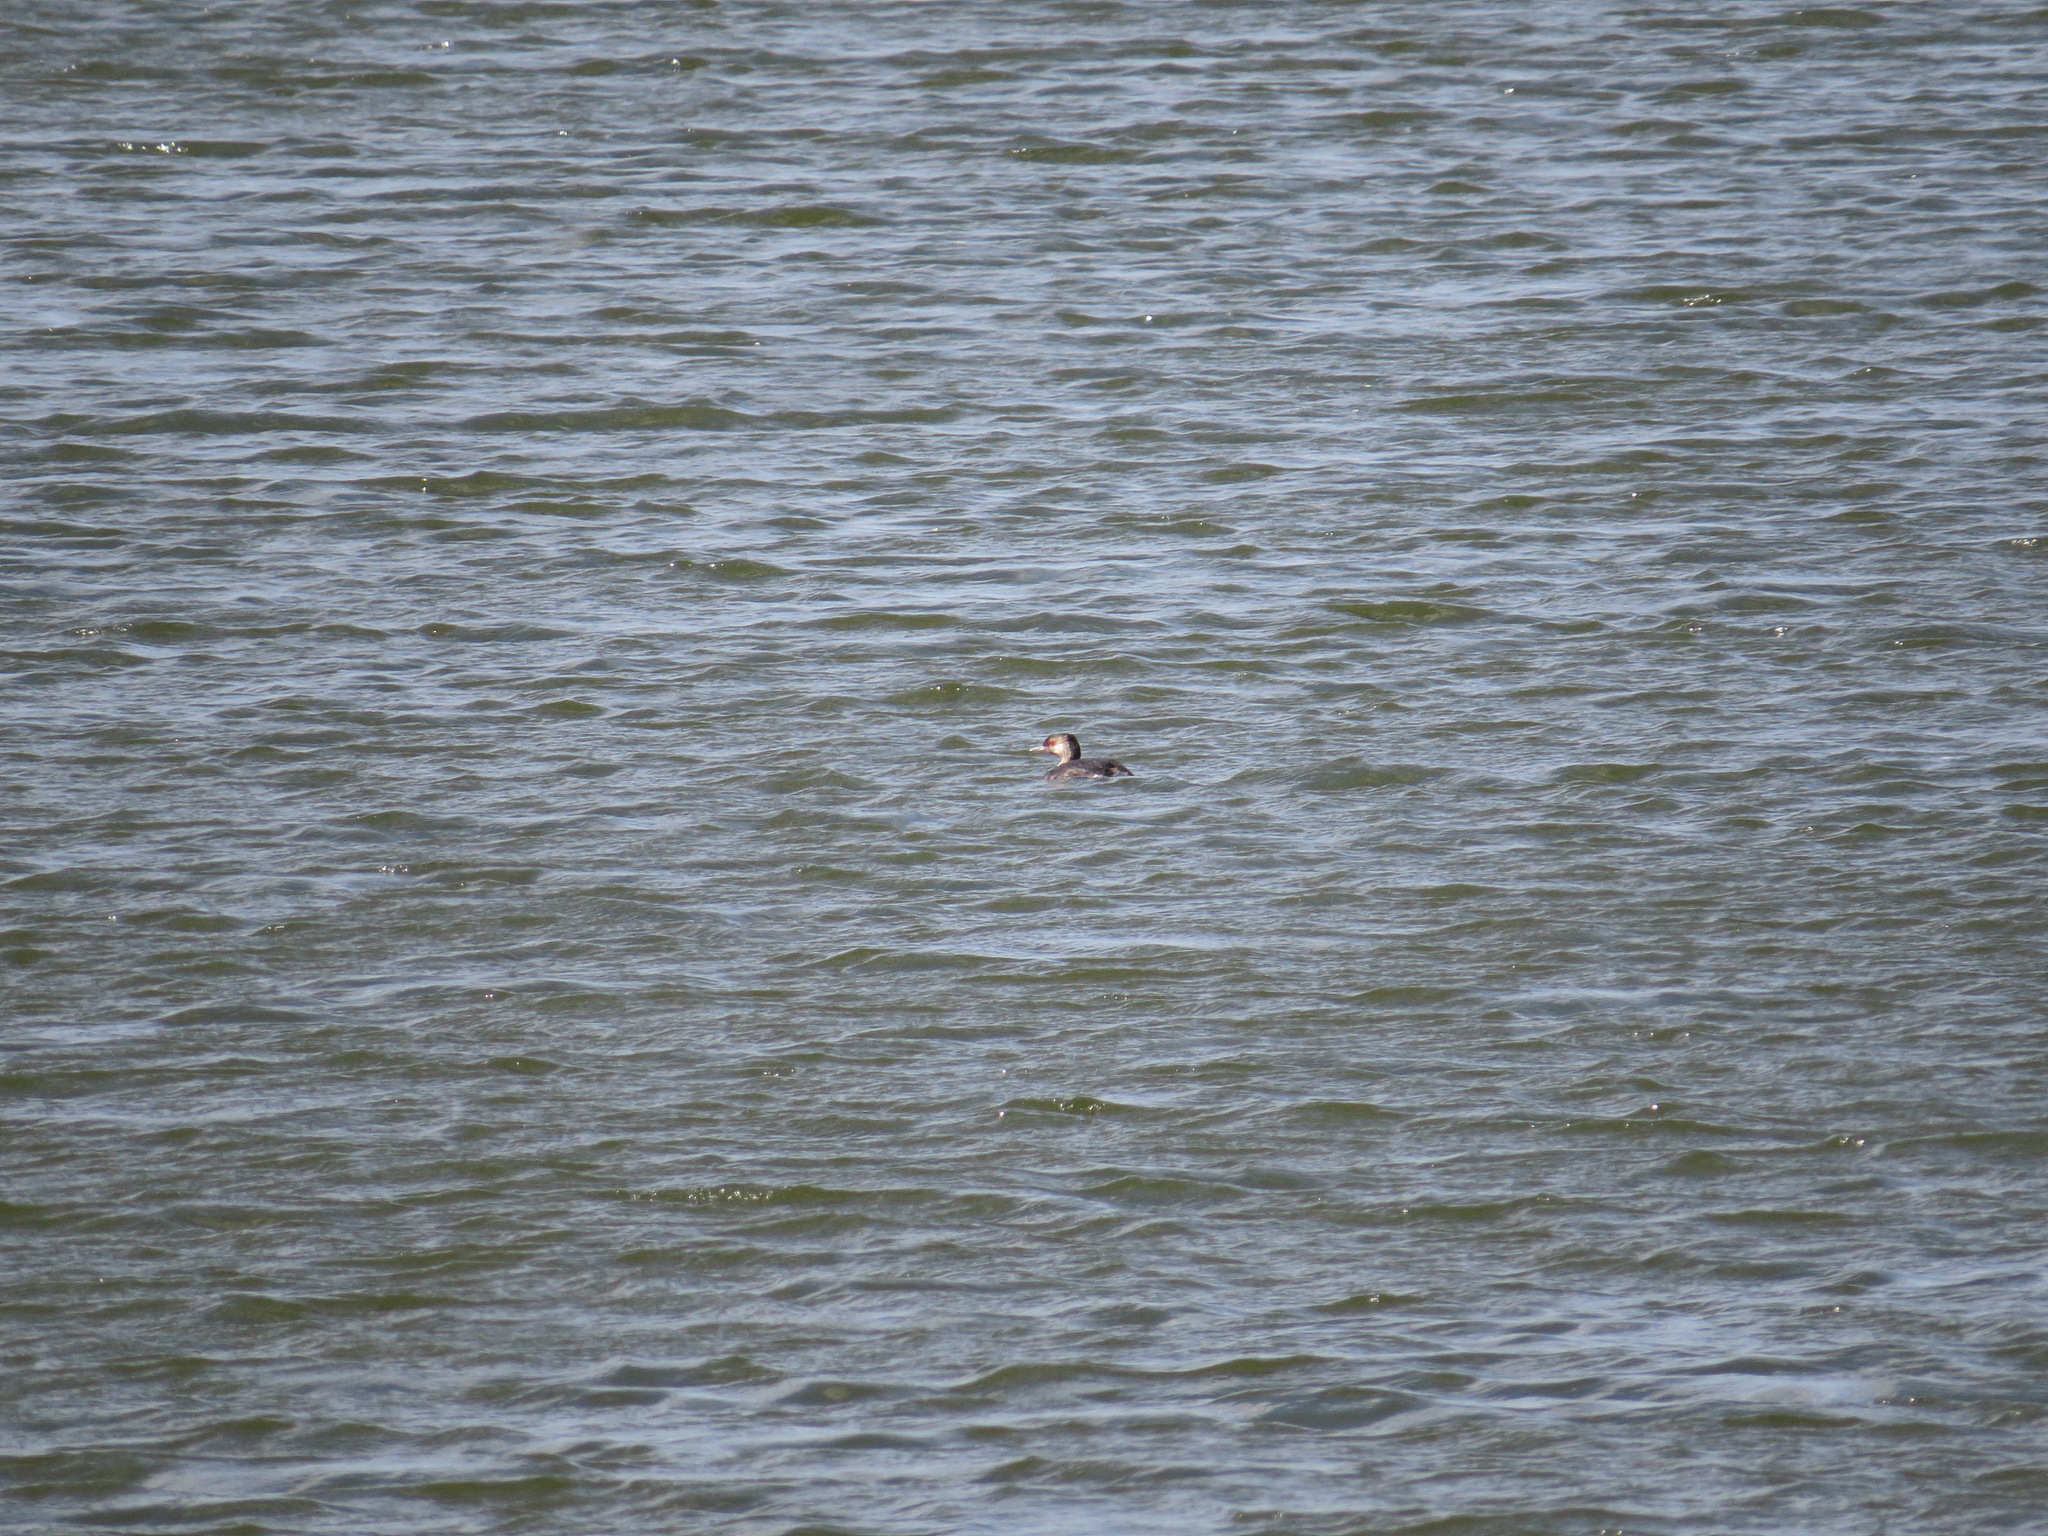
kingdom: Animalia
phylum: Chordata
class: Aves
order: Podicipediformes
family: Podicipedidae
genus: Podiceps
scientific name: Podiceps auritus
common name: Horned grebe
